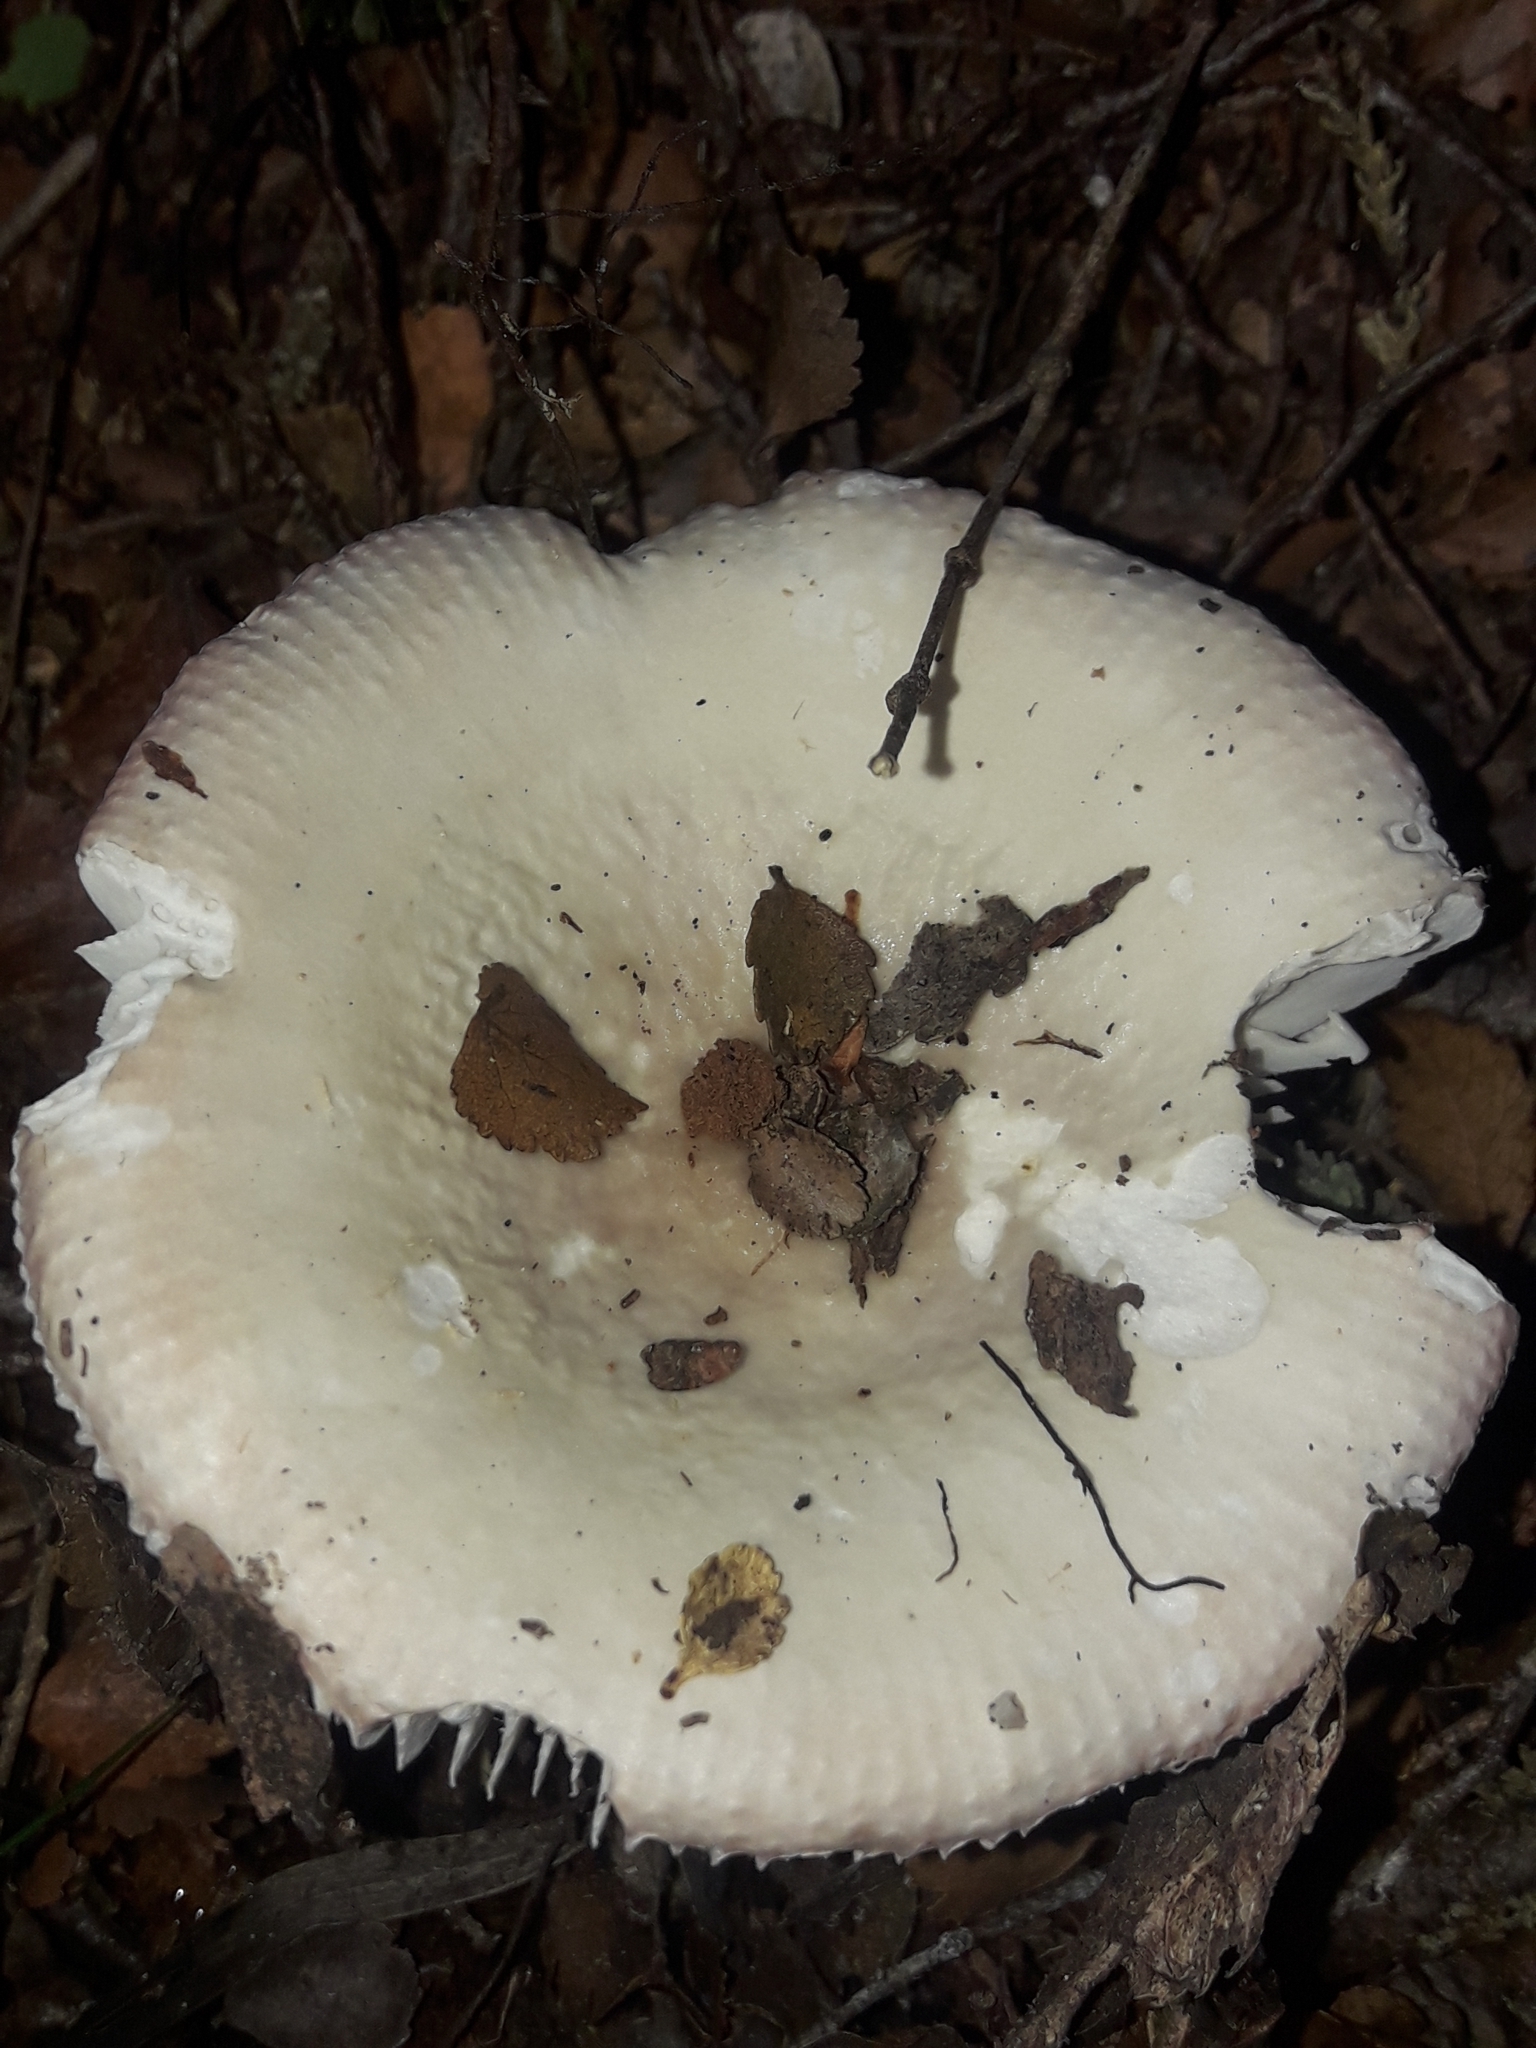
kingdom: Fungi
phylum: Basidiomycota
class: Agaricomycetes
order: Russulales
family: Russulaceae
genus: Russula
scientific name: Russula purpureotincta
